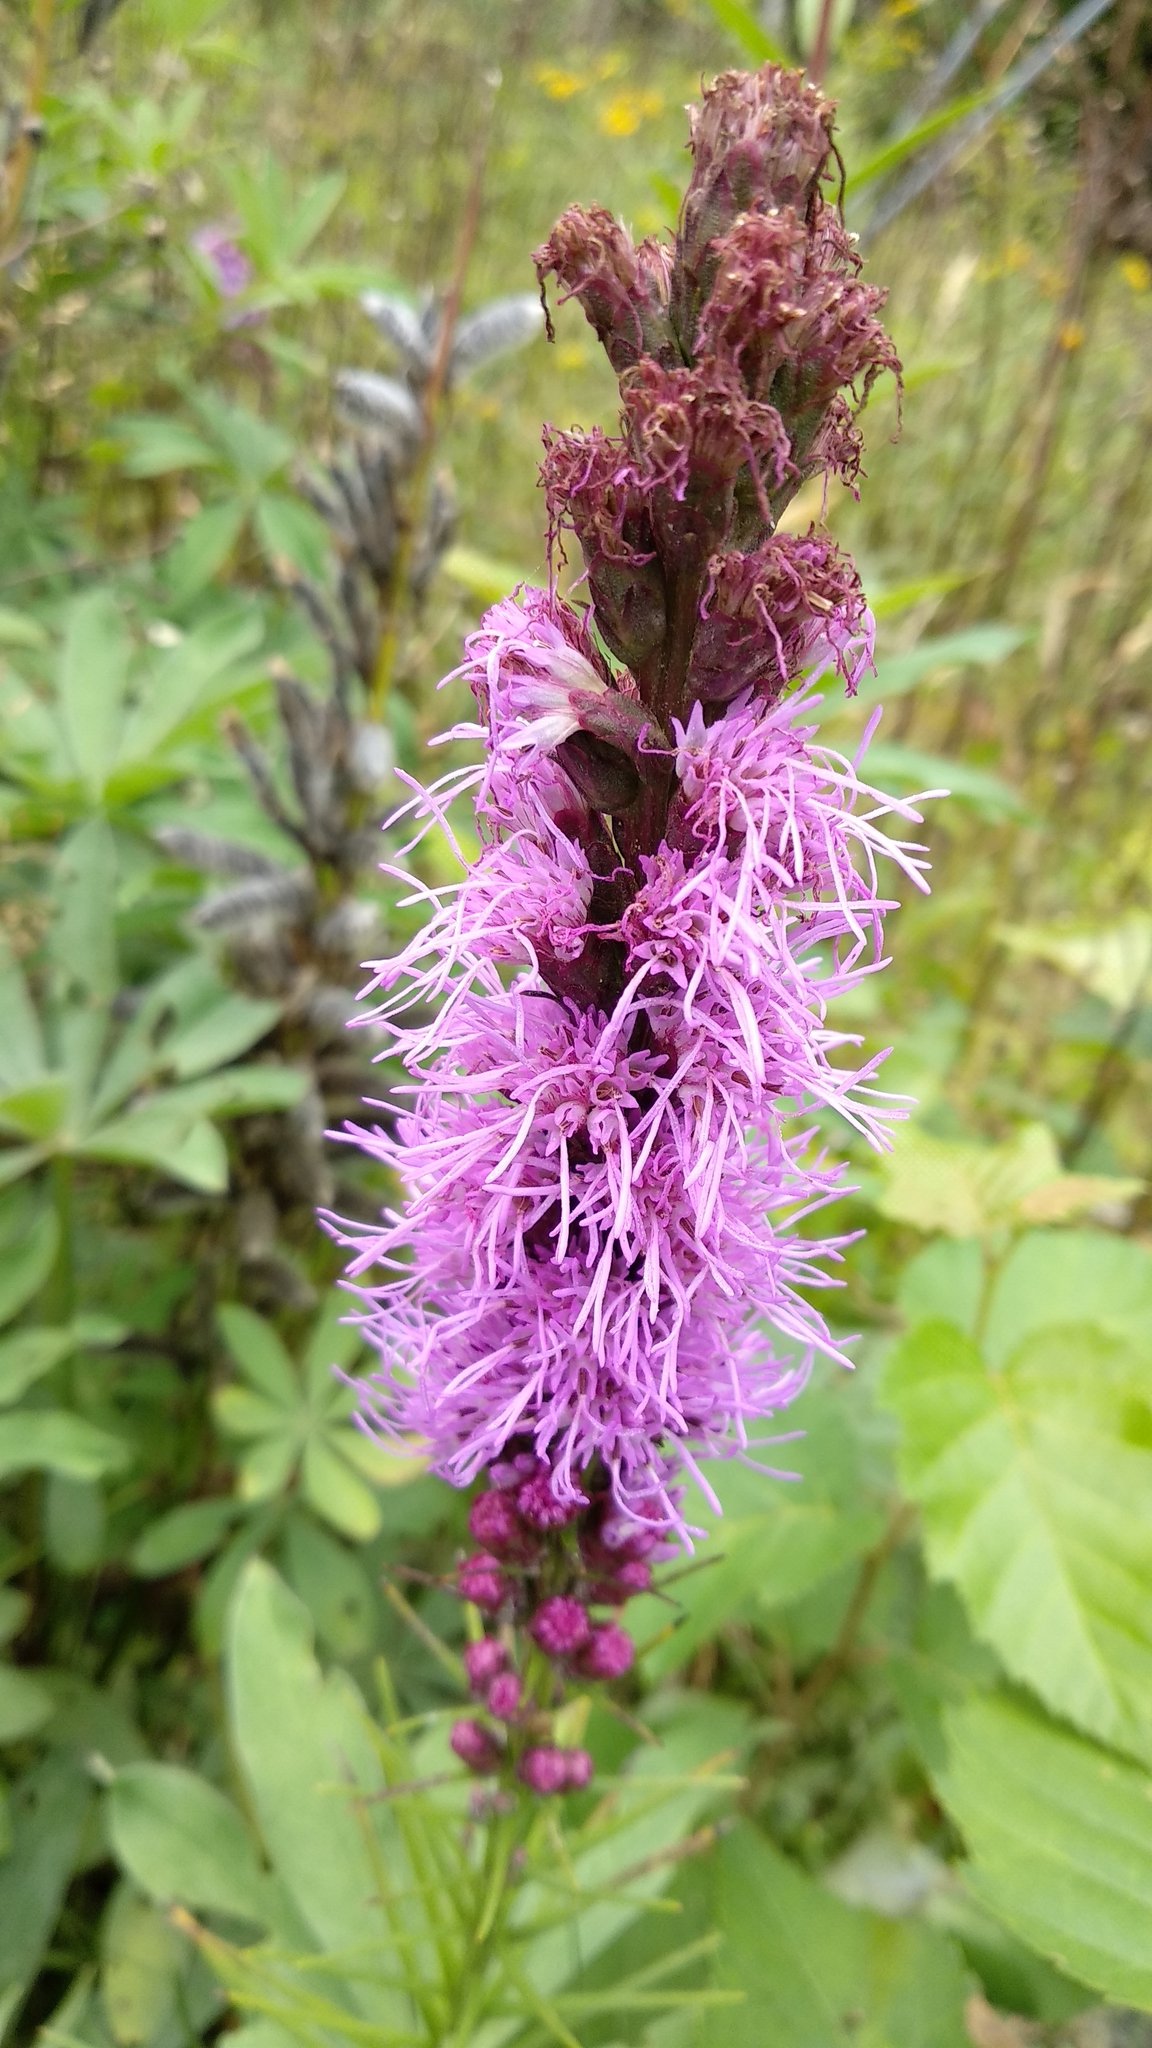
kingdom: Plantae
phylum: Tracheophyta
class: Magnoliopsida
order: Asterales
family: Asteraceae
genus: Liatris
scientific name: Liatris spicata
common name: Florist gayfeather
